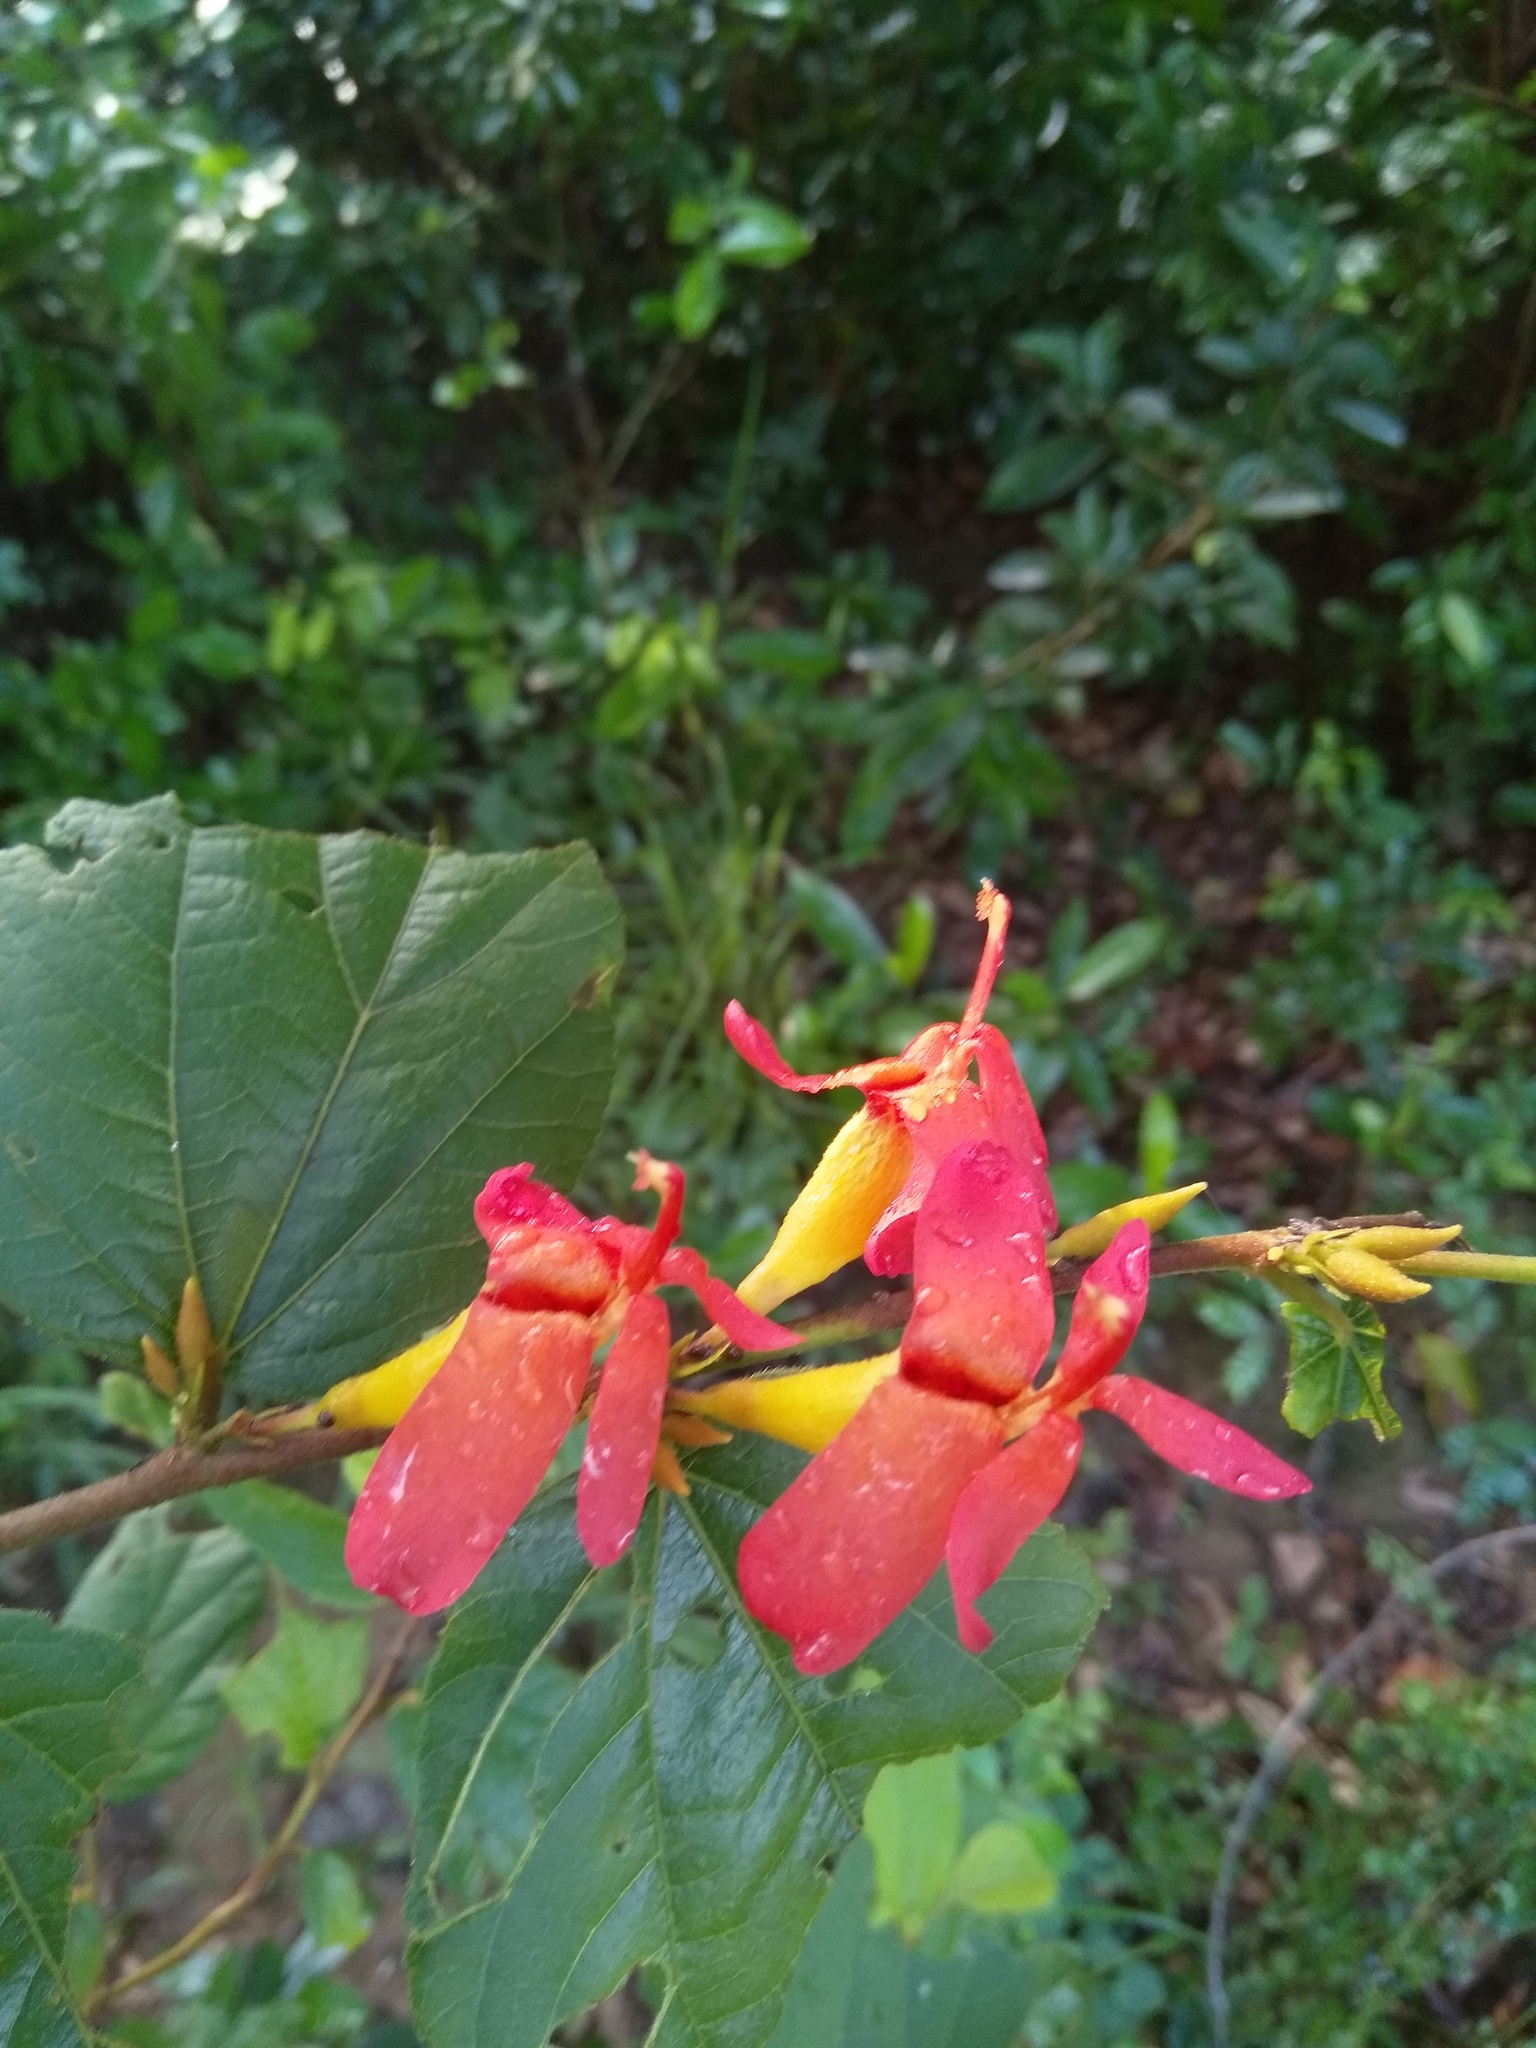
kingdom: Plantae
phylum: Tracheophyta
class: Magnoliopsida
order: Malvales
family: Malvaceae
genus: Helicteres
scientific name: Helicteres isora
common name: East indian screwtree
